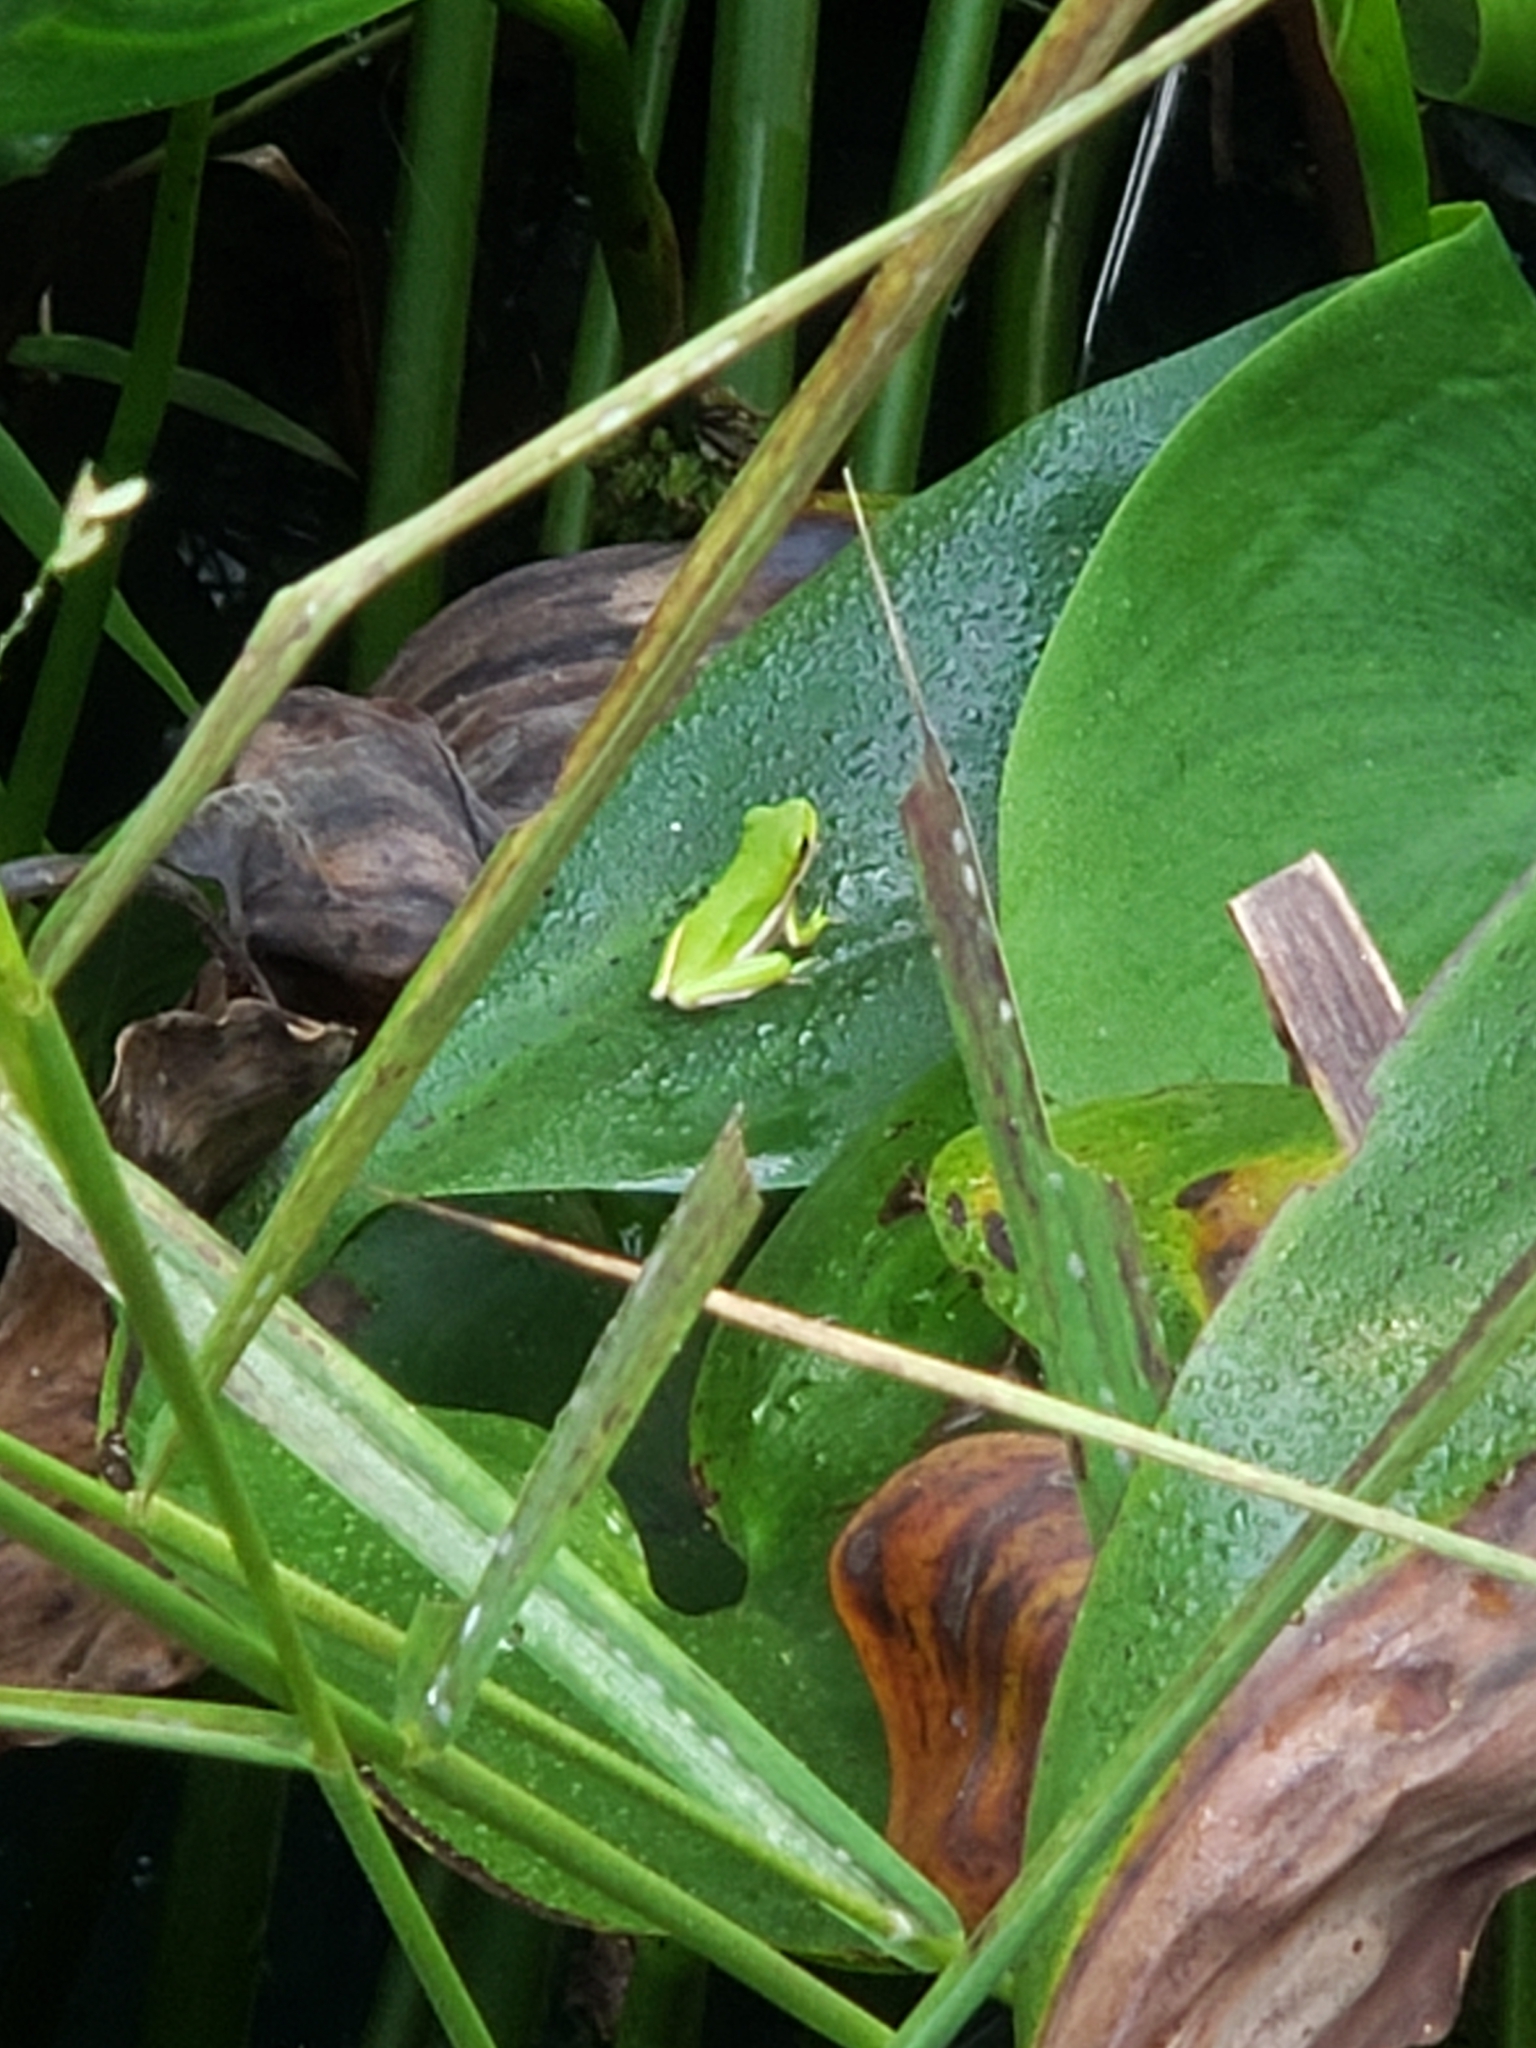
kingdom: Animalia
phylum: Chordata
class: Amphibia
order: Anura
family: Hylidae
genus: Dryophytes
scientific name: Dryophytes cinereus
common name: Green treefrog
